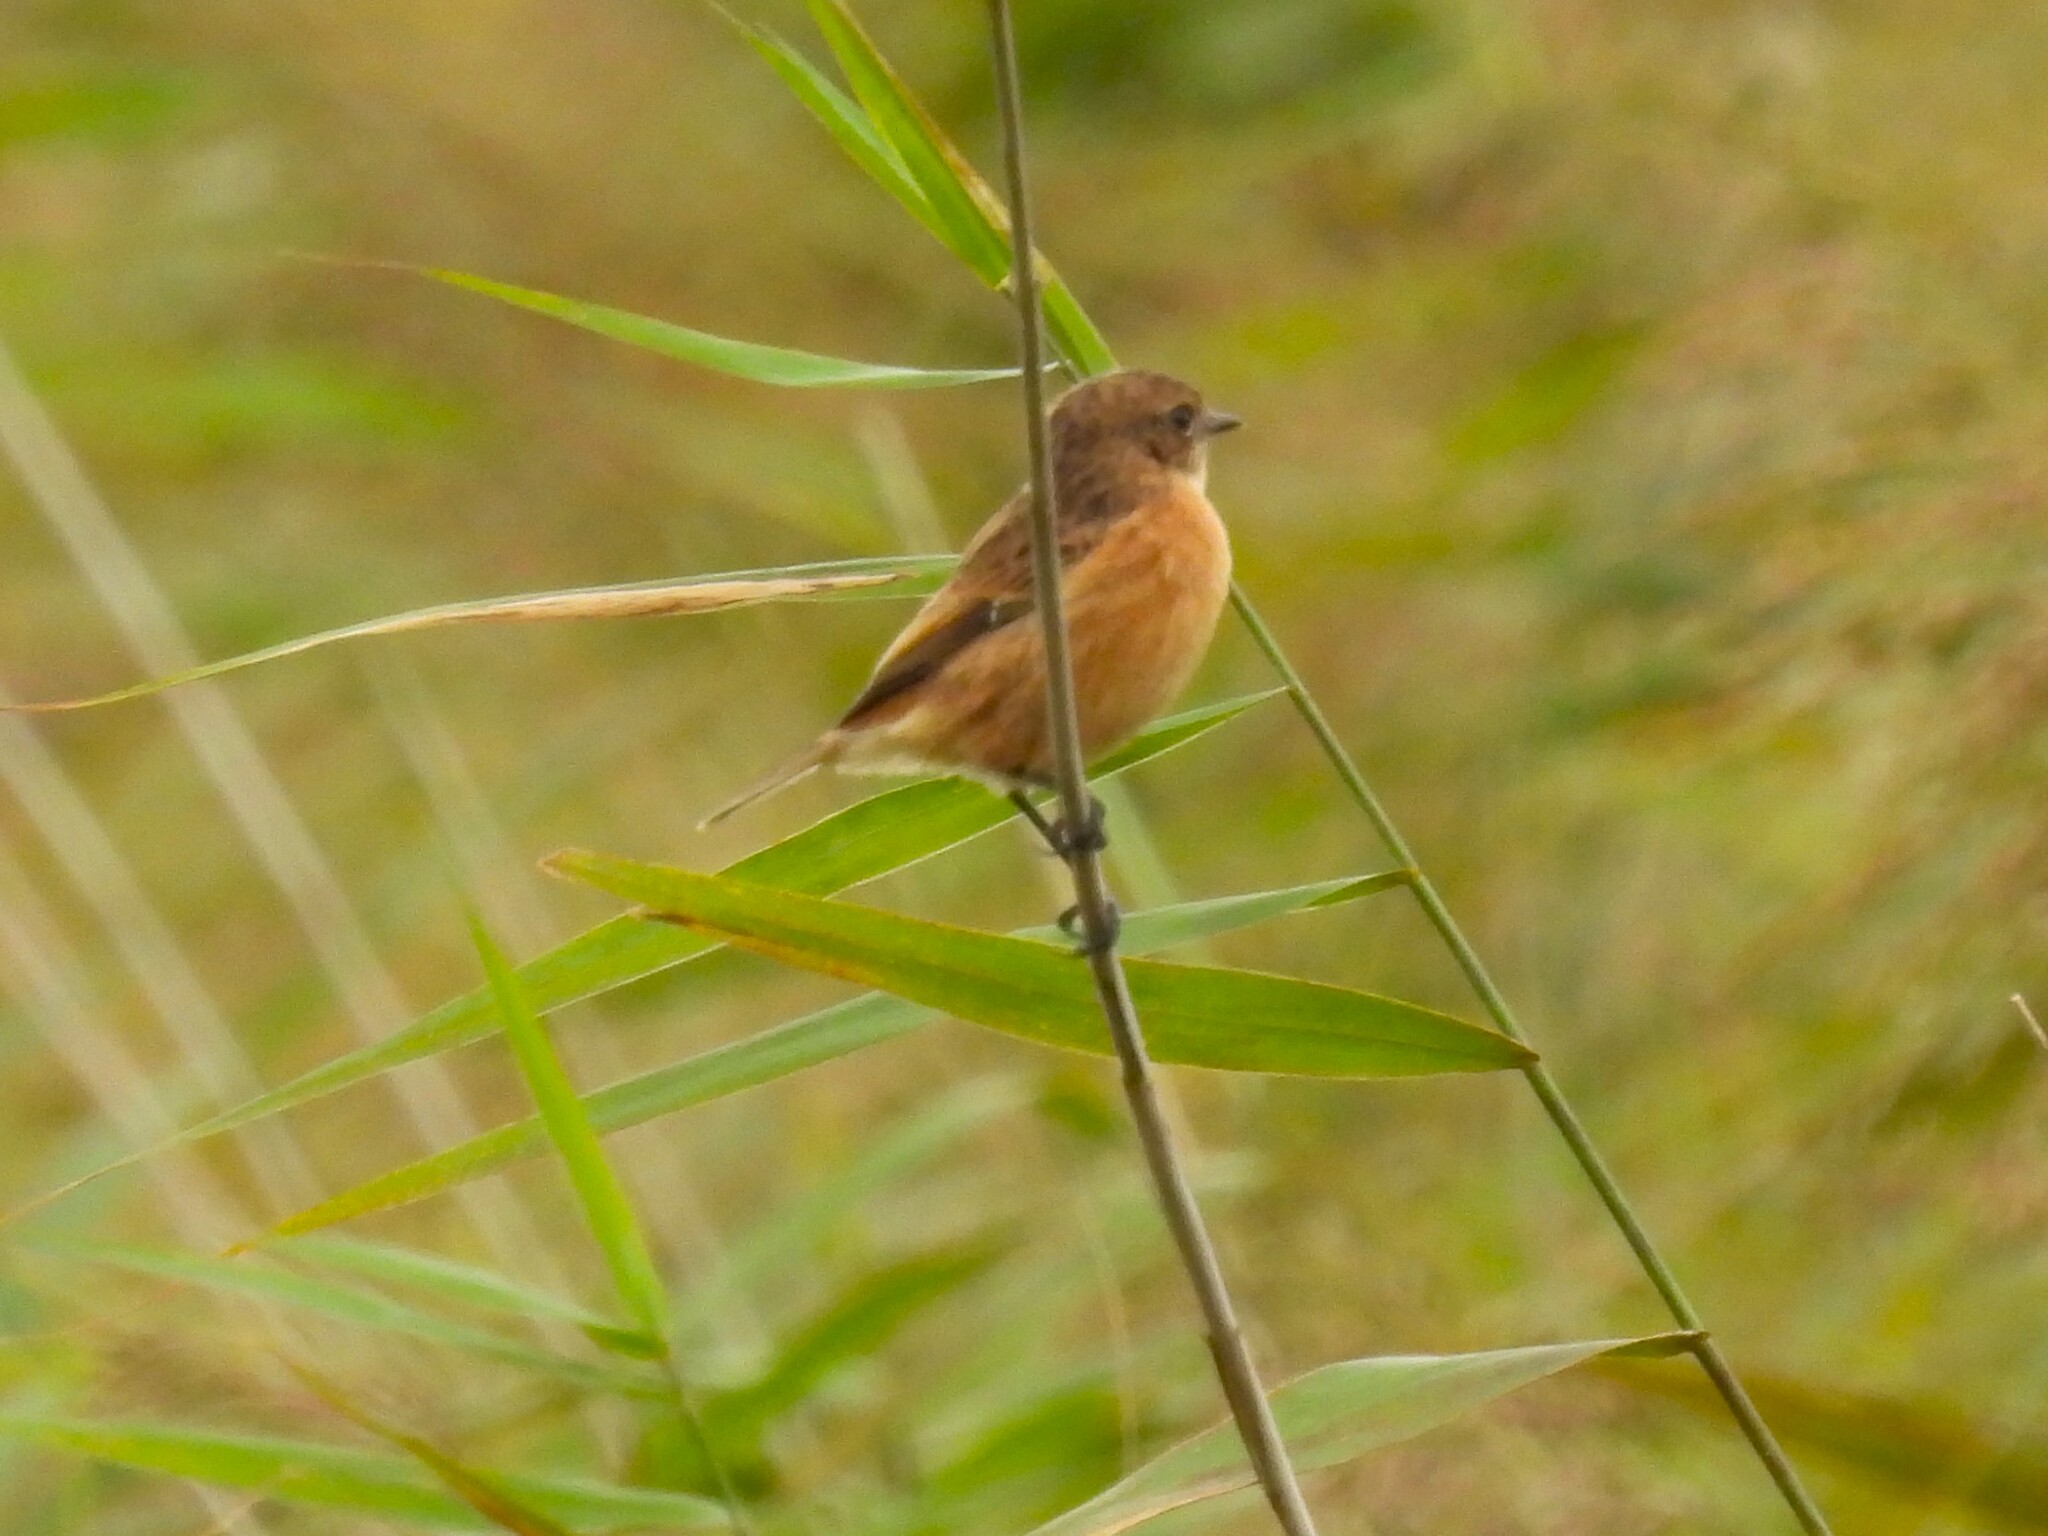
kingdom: Animalia
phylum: Chordata
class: Aves
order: Passeriformes
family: Muscicapidae
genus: Saxicola
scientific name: Saxicola rubicola
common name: European stonechat
